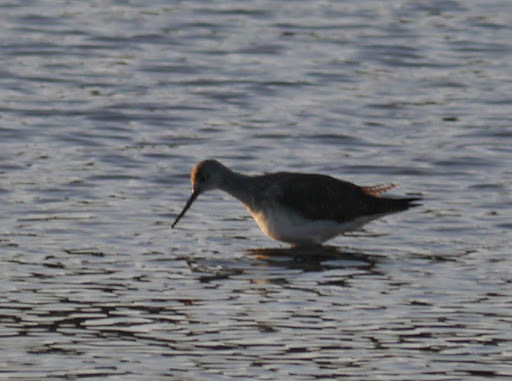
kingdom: Animalia
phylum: Chordata
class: Aves
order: Charadriiformes
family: Scolopacidae
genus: Tringa
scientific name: Tringa melanoleuca
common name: Greater yellowlegs
